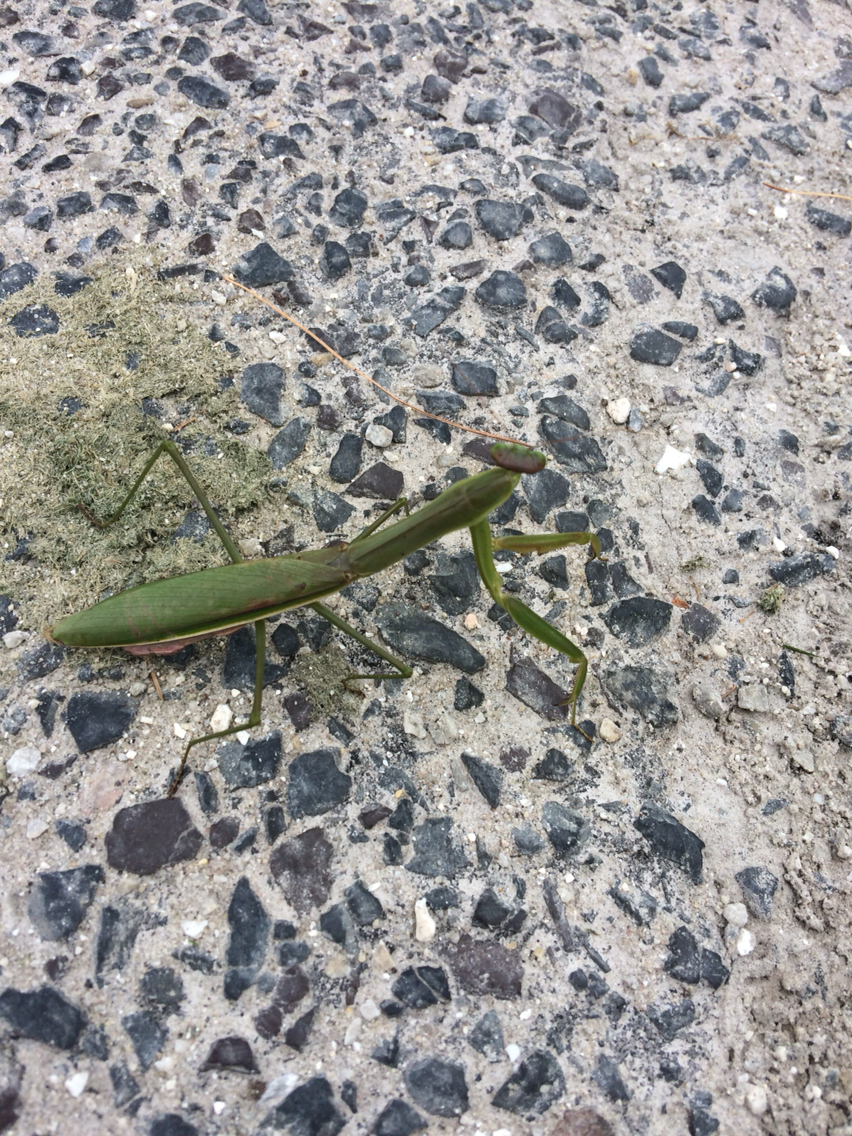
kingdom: Animalia
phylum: Arthropoda
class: Insecta
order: Mantodea
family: Mantidae
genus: Tenodera
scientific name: Tenodera sinensis
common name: Chinese mantis
